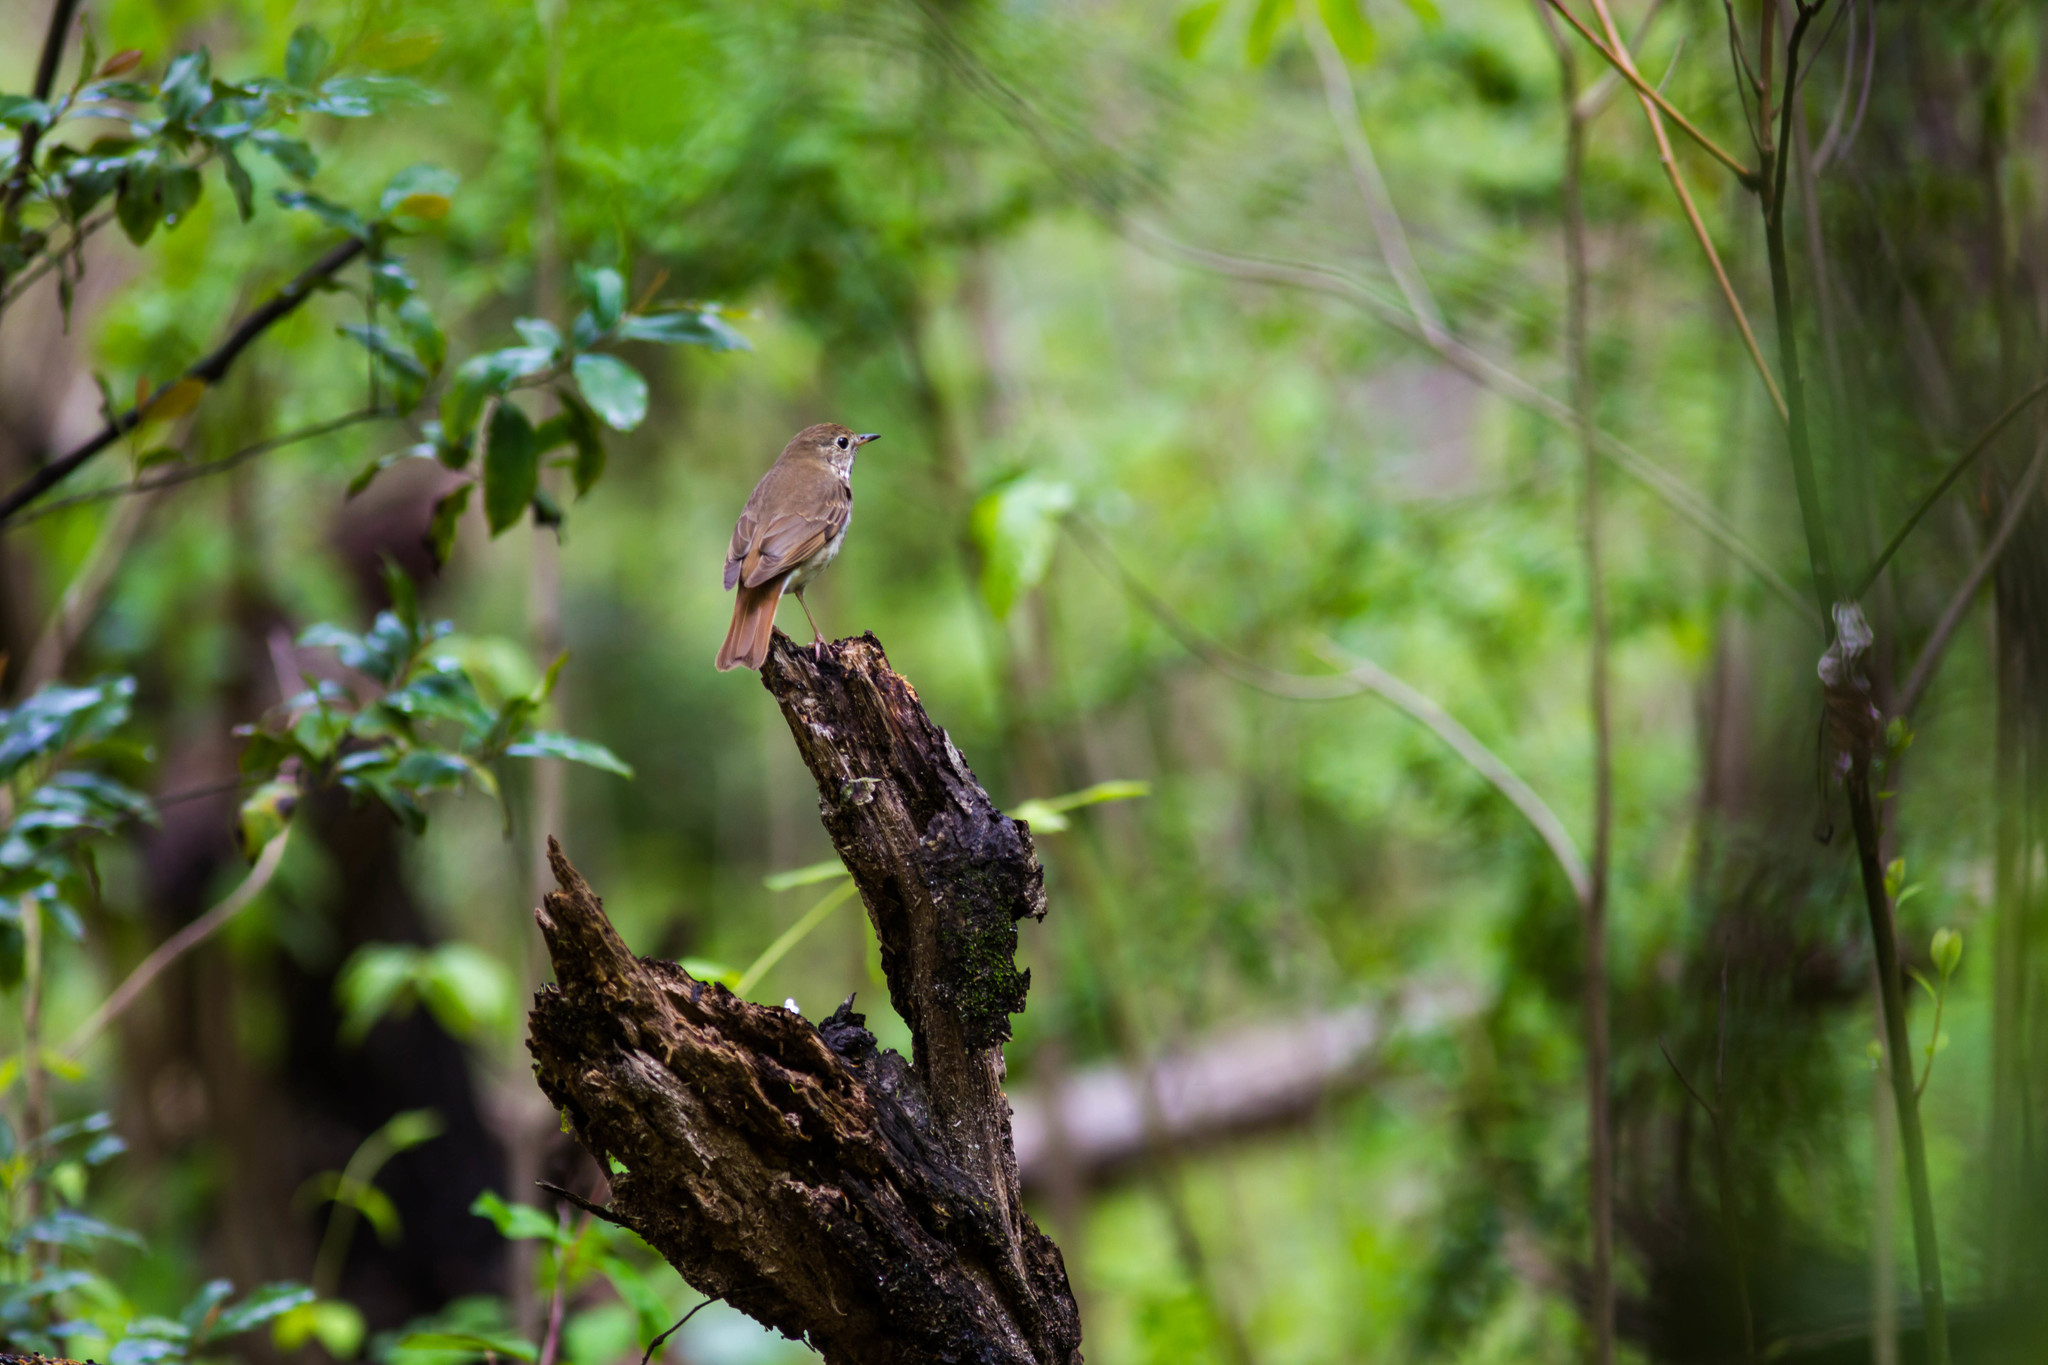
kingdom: Animalia
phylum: Chordata
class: Aves
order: Passeriformes
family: Turdidae
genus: Catharus
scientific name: Catharus guttatus
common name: Hermit thrush
